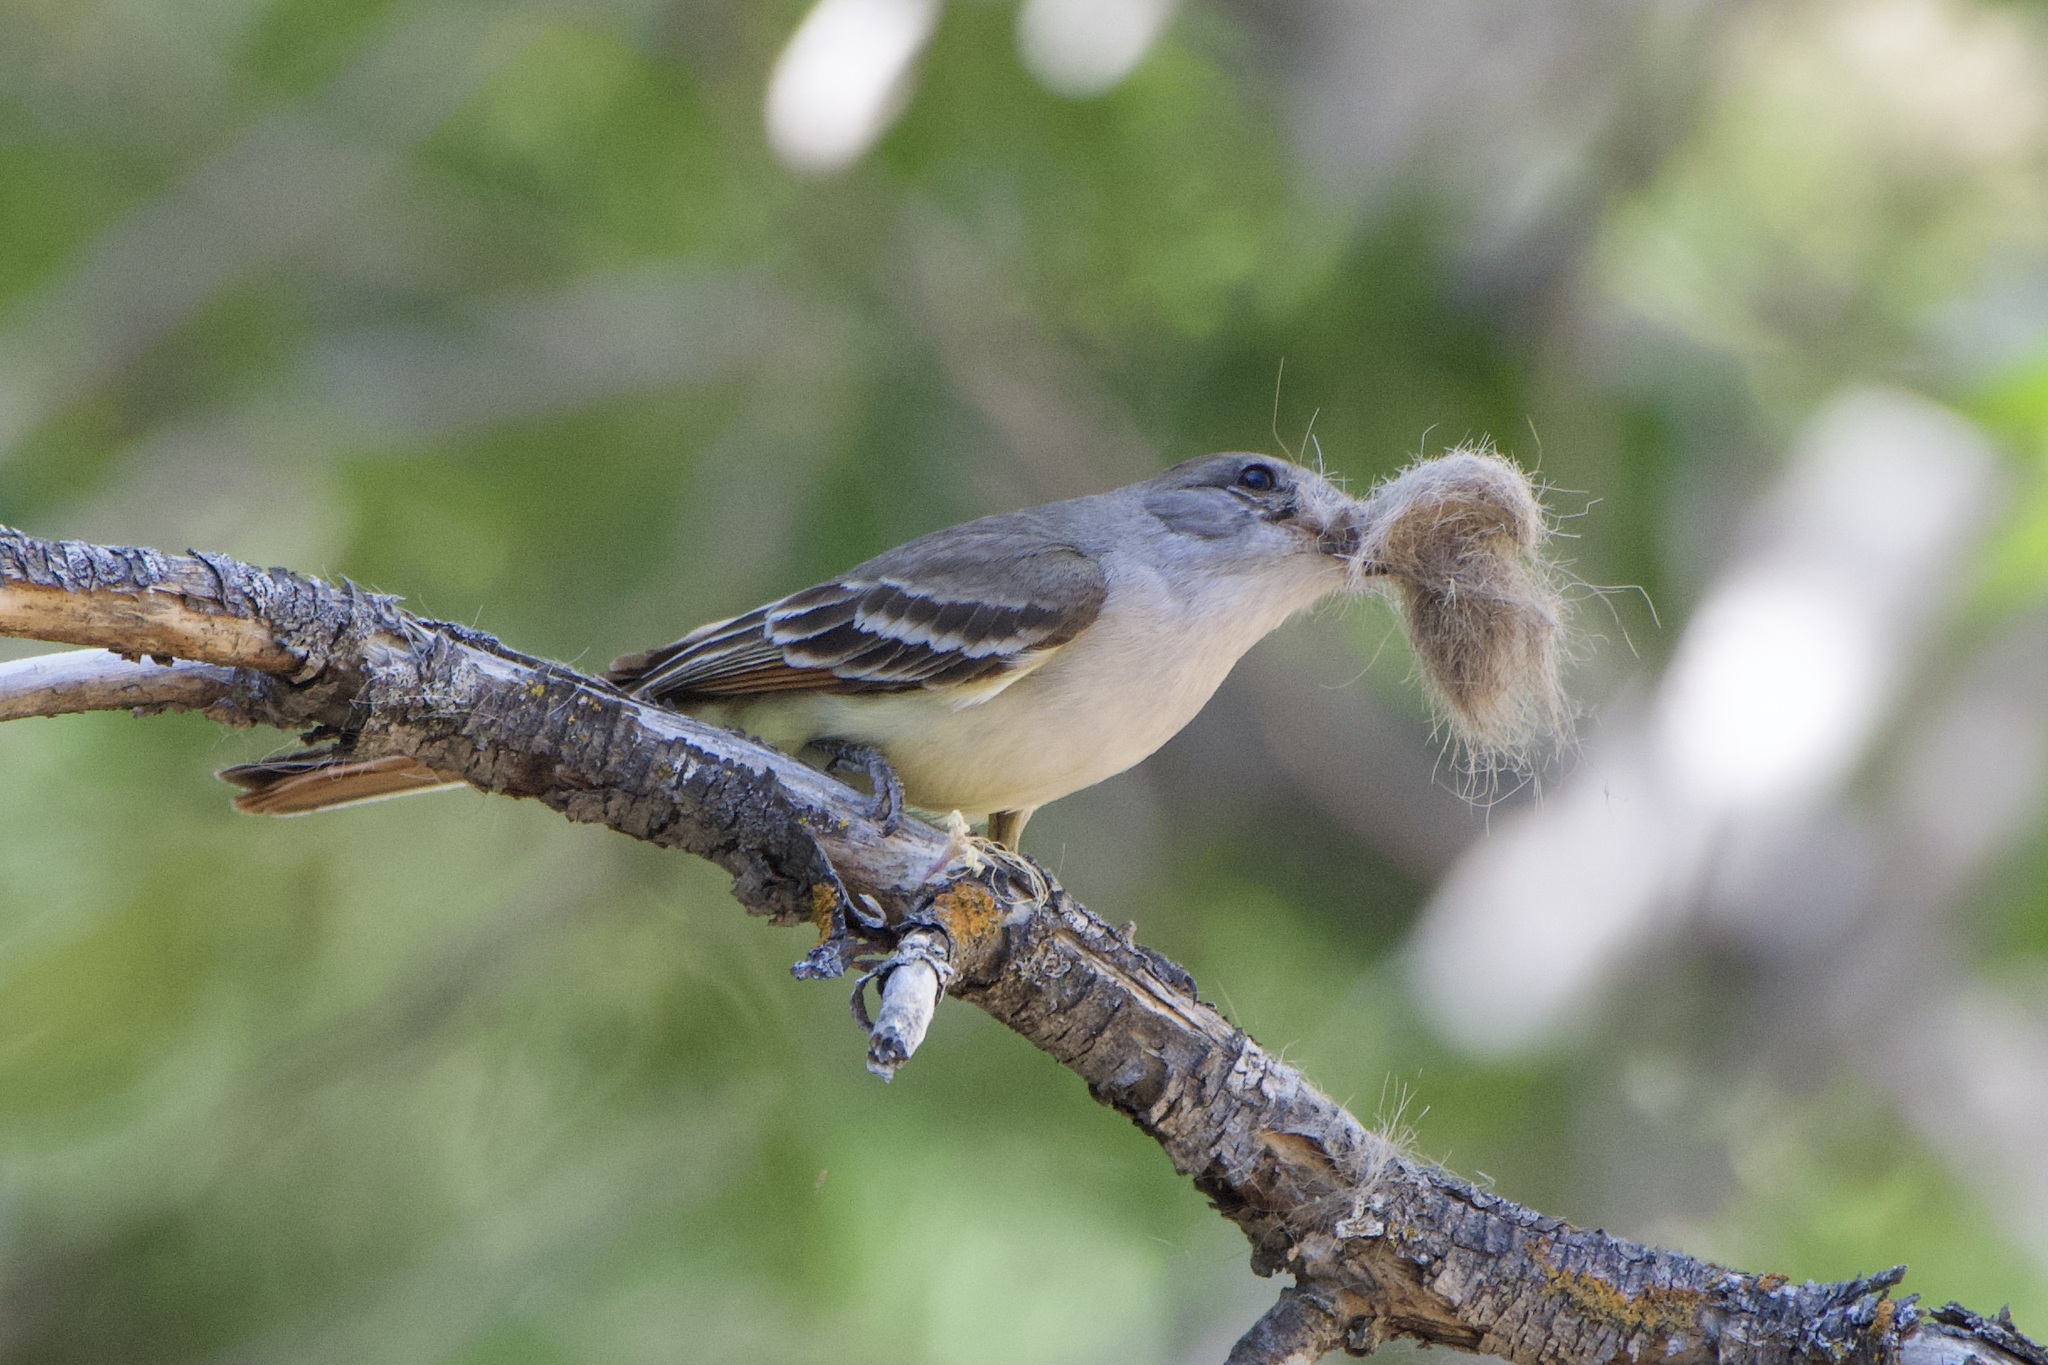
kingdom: Animalia
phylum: Chordata
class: Aves
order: Passeriformes
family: Tyrannidae
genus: Myiarchus
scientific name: Myiarchus cinerascens
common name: Ash-throated flycatcher
